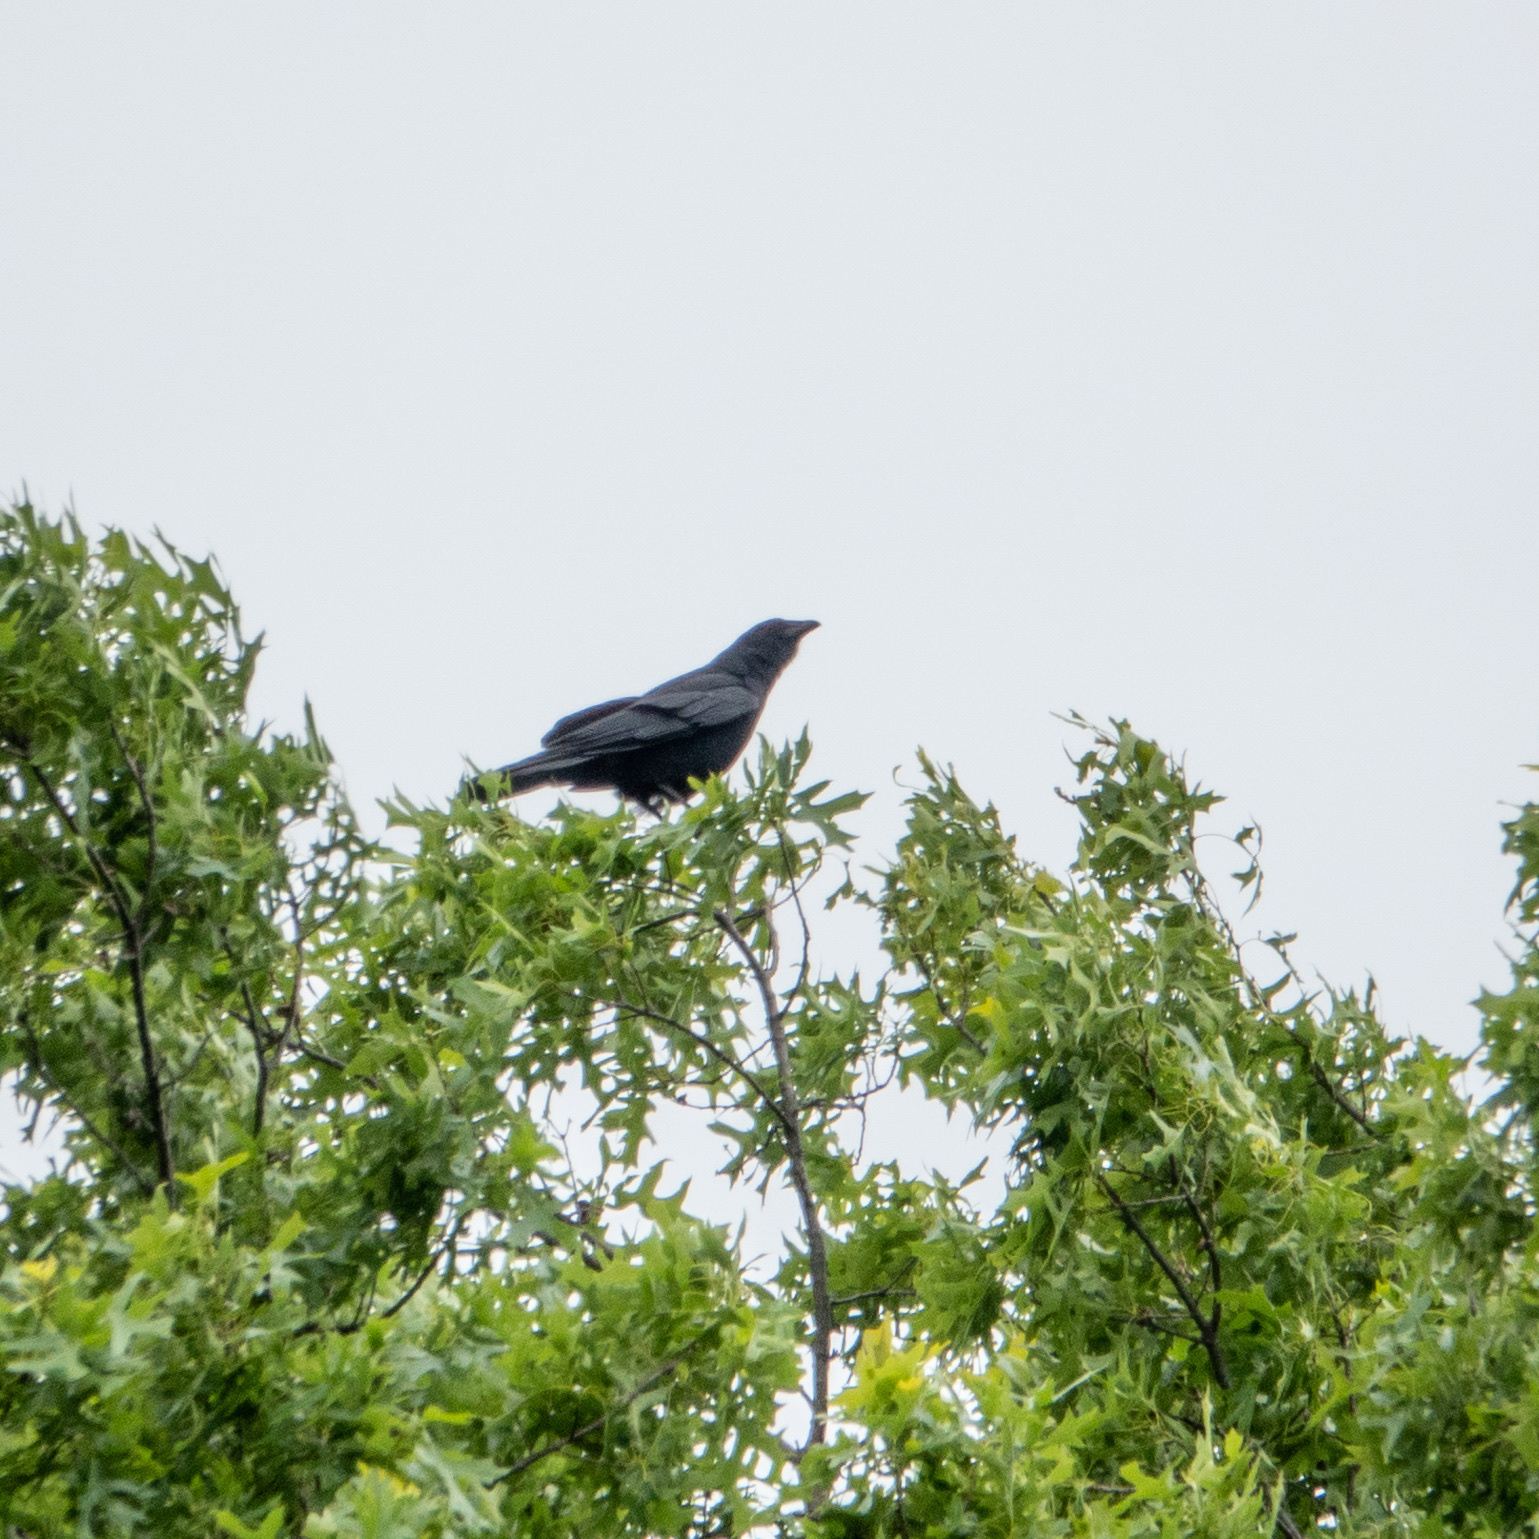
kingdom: Animalia
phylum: Chordata
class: Aves
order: Passeriformes
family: Corvidae
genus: Corvus
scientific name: Corvus brachyrhynchos
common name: American crow
